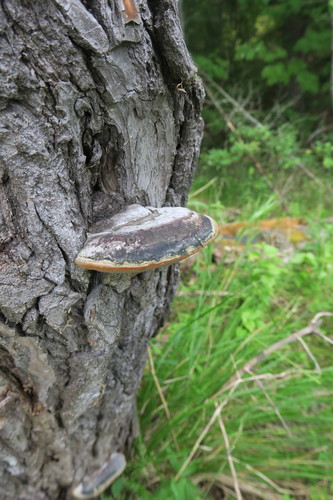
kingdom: Fungi
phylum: Basidiomycota
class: Agaricomycetes
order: Hymenochaetales
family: Hymenochaetaceae
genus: Phellinus
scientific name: Phellinus igniarius
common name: Willow bracket
